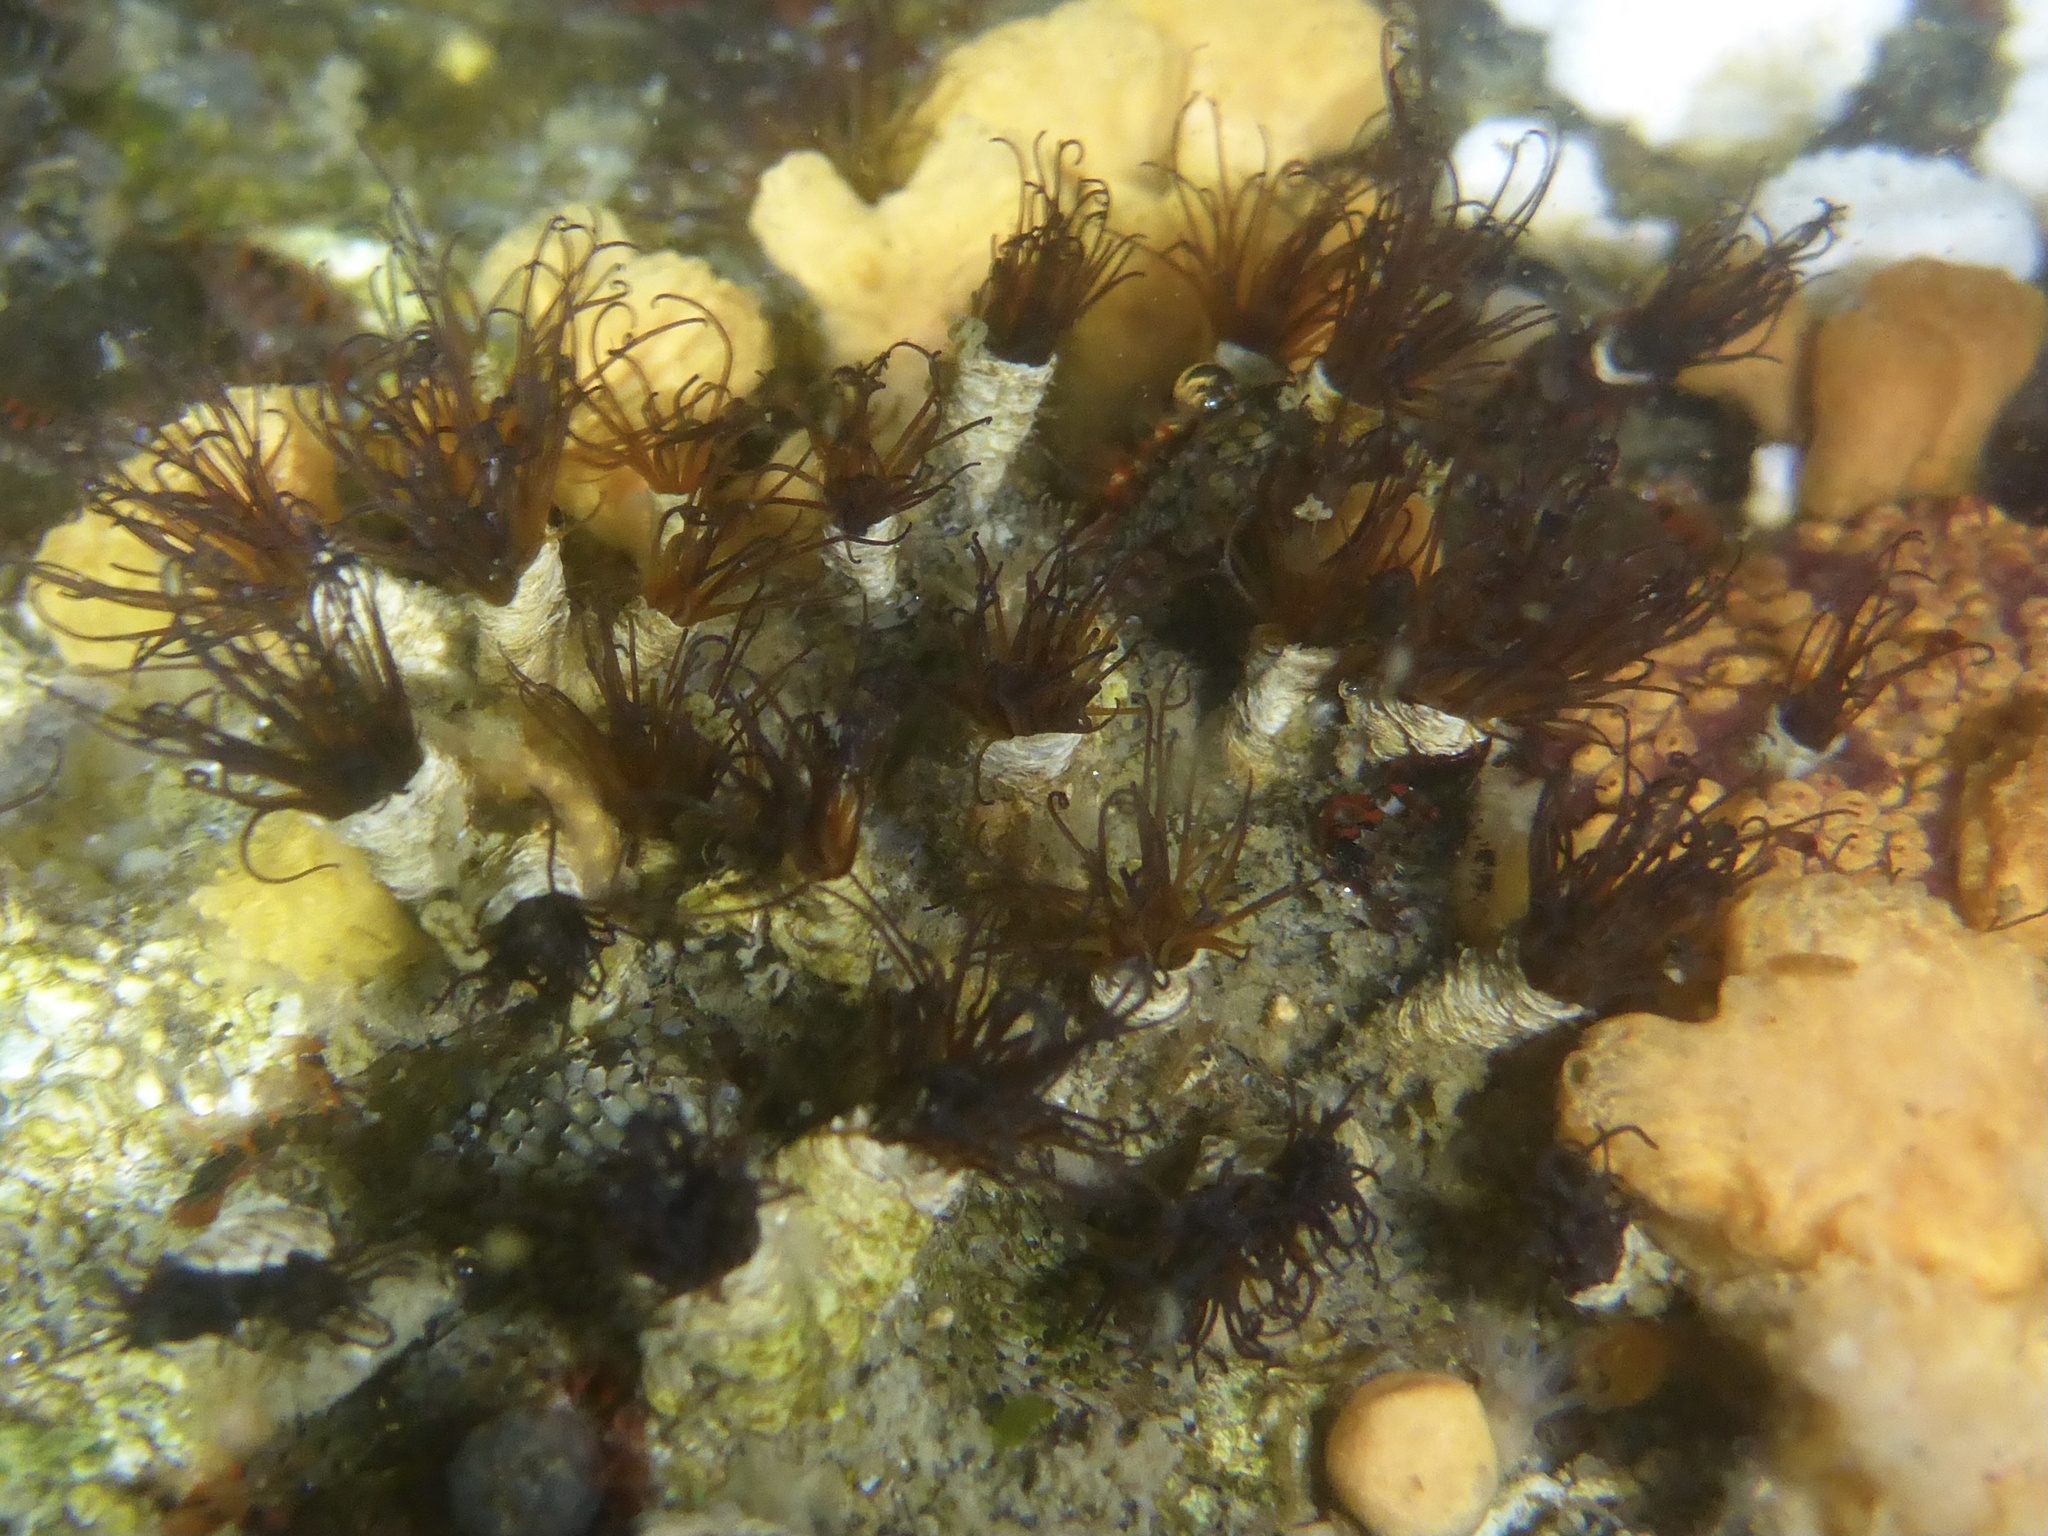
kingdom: Animalia
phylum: Annelida
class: Polychaeta
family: Cirratulidae
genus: Dodecaceria
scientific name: Dodecaceria pacifica
